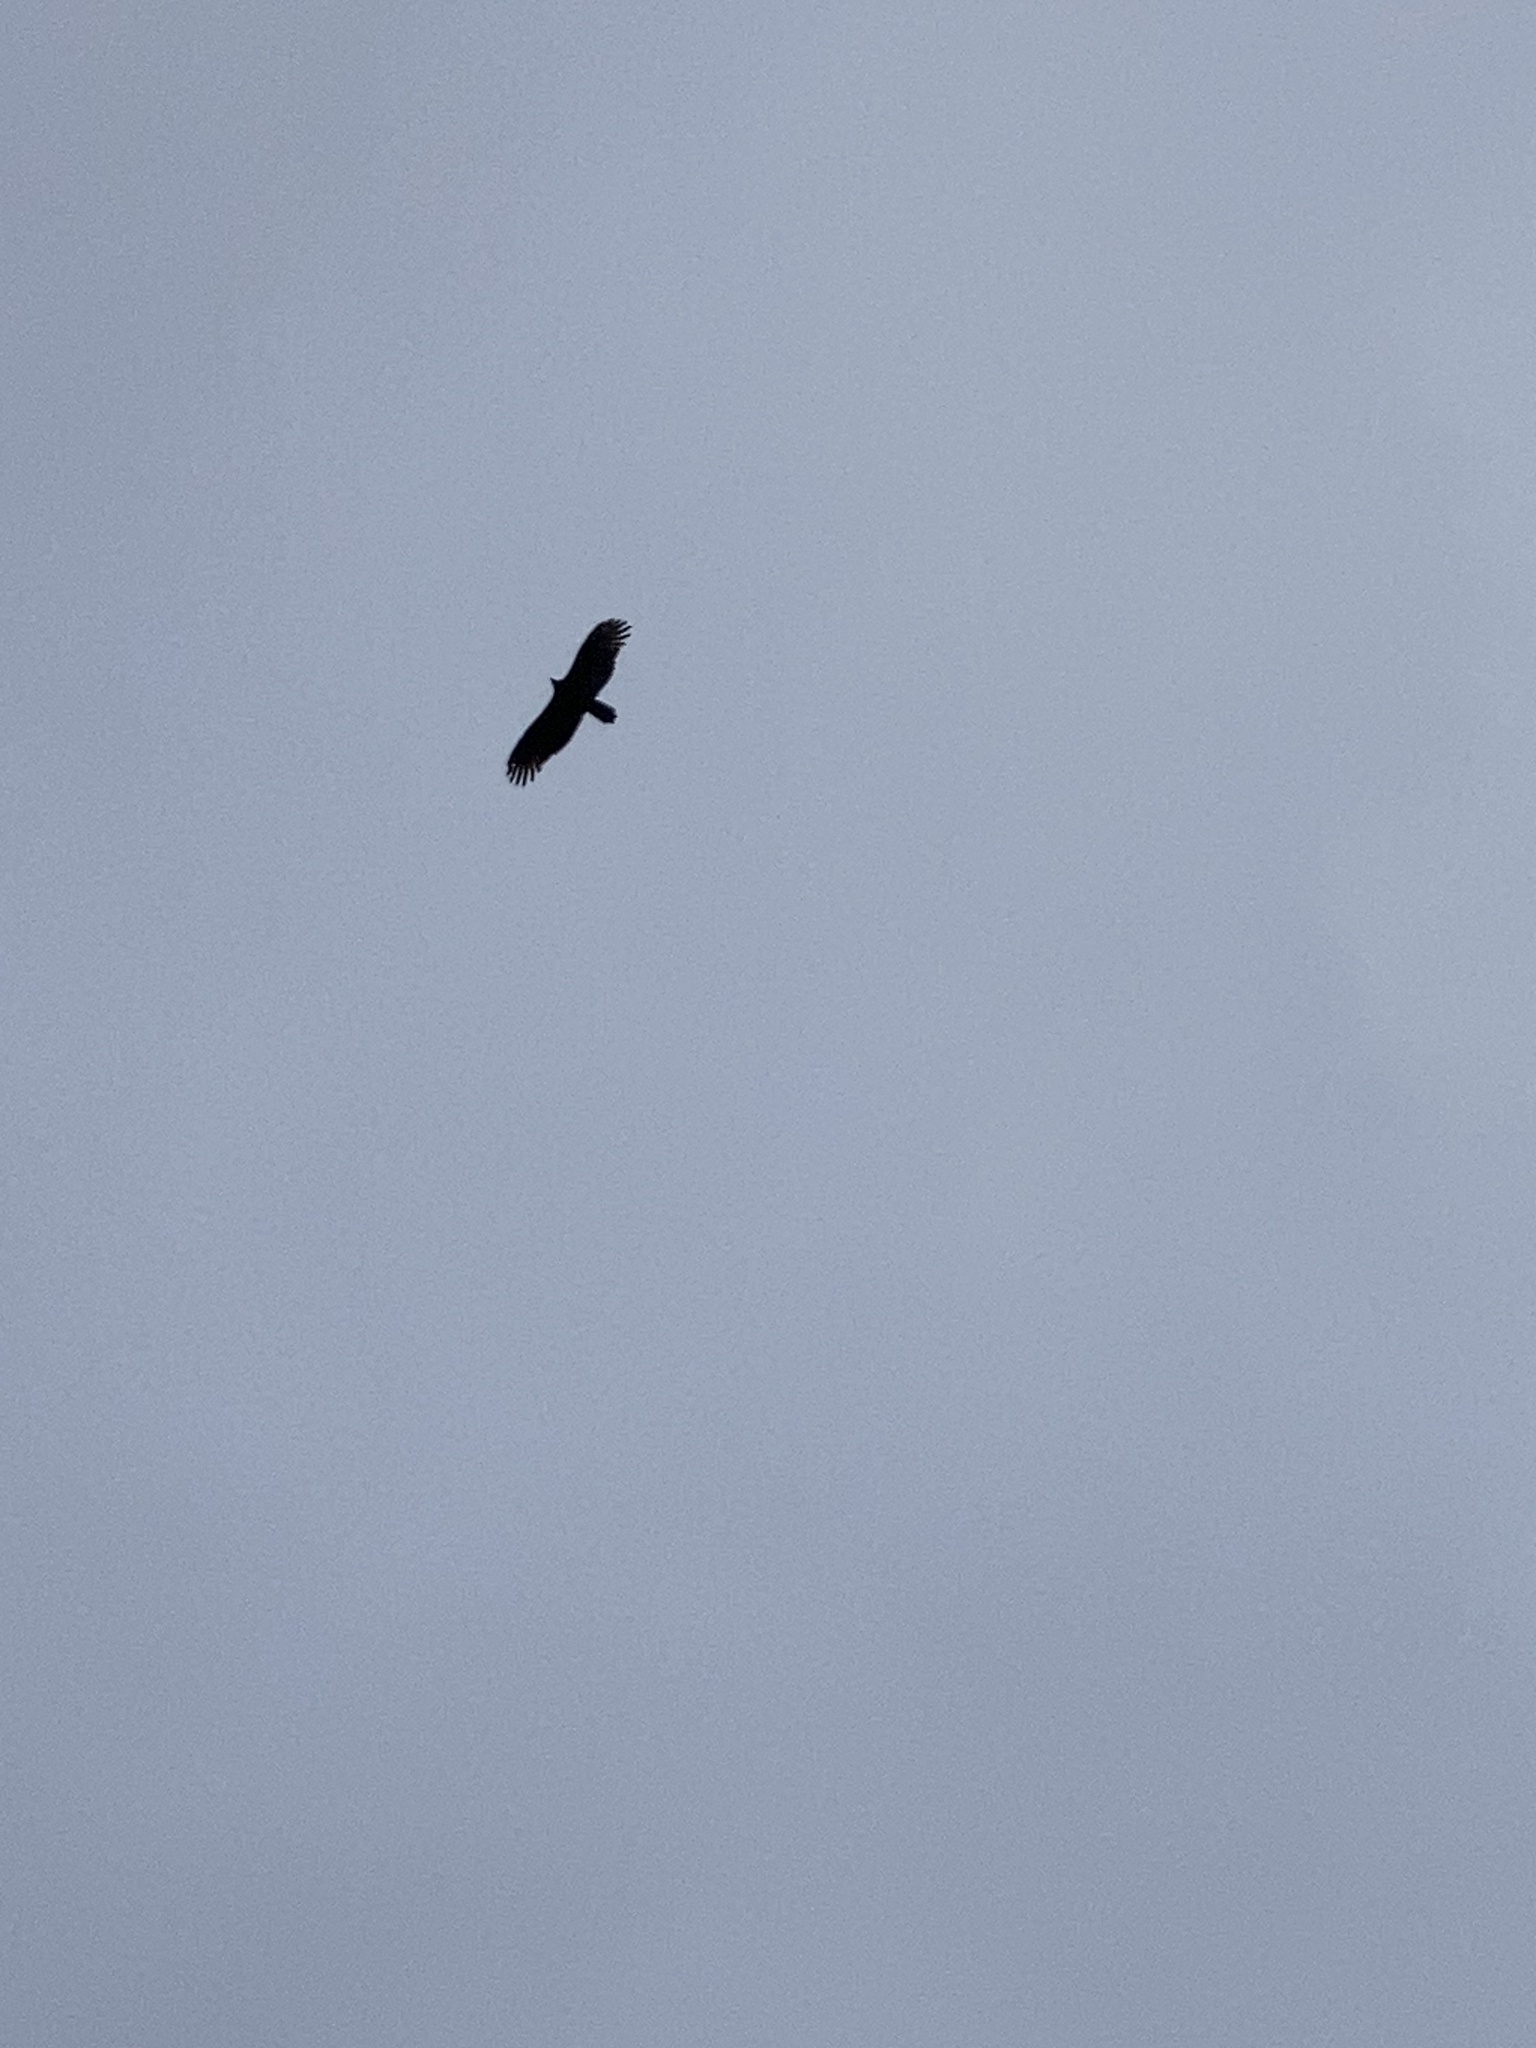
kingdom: Animalia
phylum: Chordata
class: Aves
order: Accipitriformes
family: Cathartidae
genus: Cathartes
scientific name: Cathartes aura
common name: Turkey vulture
